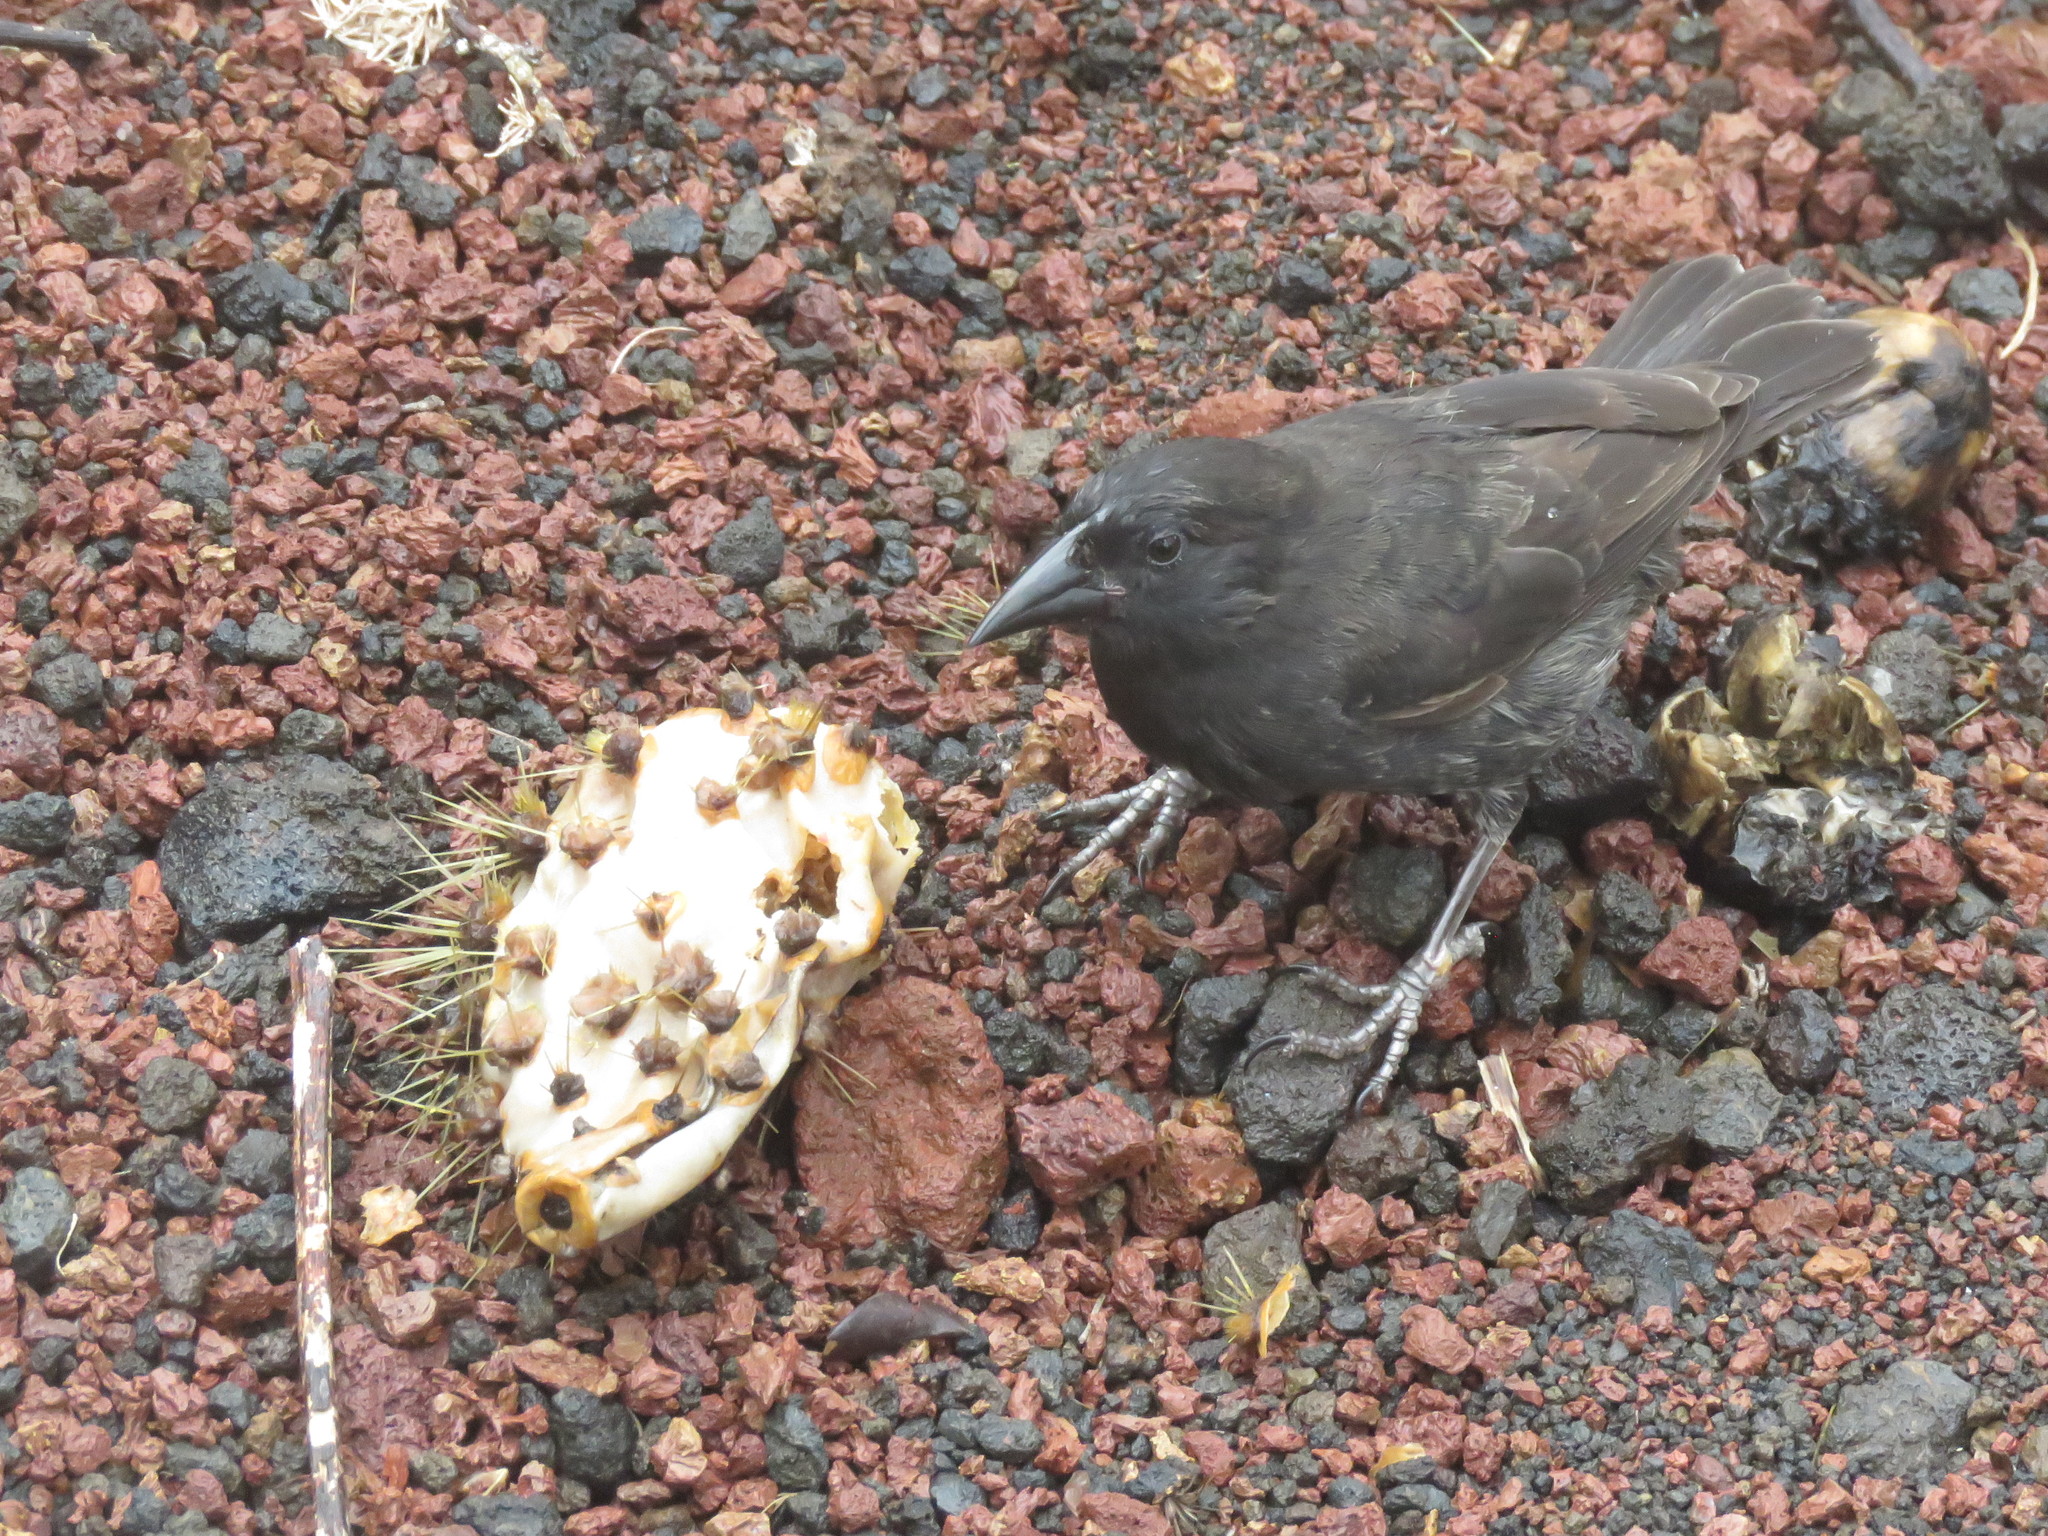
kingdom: Animalia
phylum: Chordata
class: Aves
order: Passeriformes
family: Thraupidae
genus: Geospiza
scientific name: Geospiza scandens
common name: Common cactus-finch
